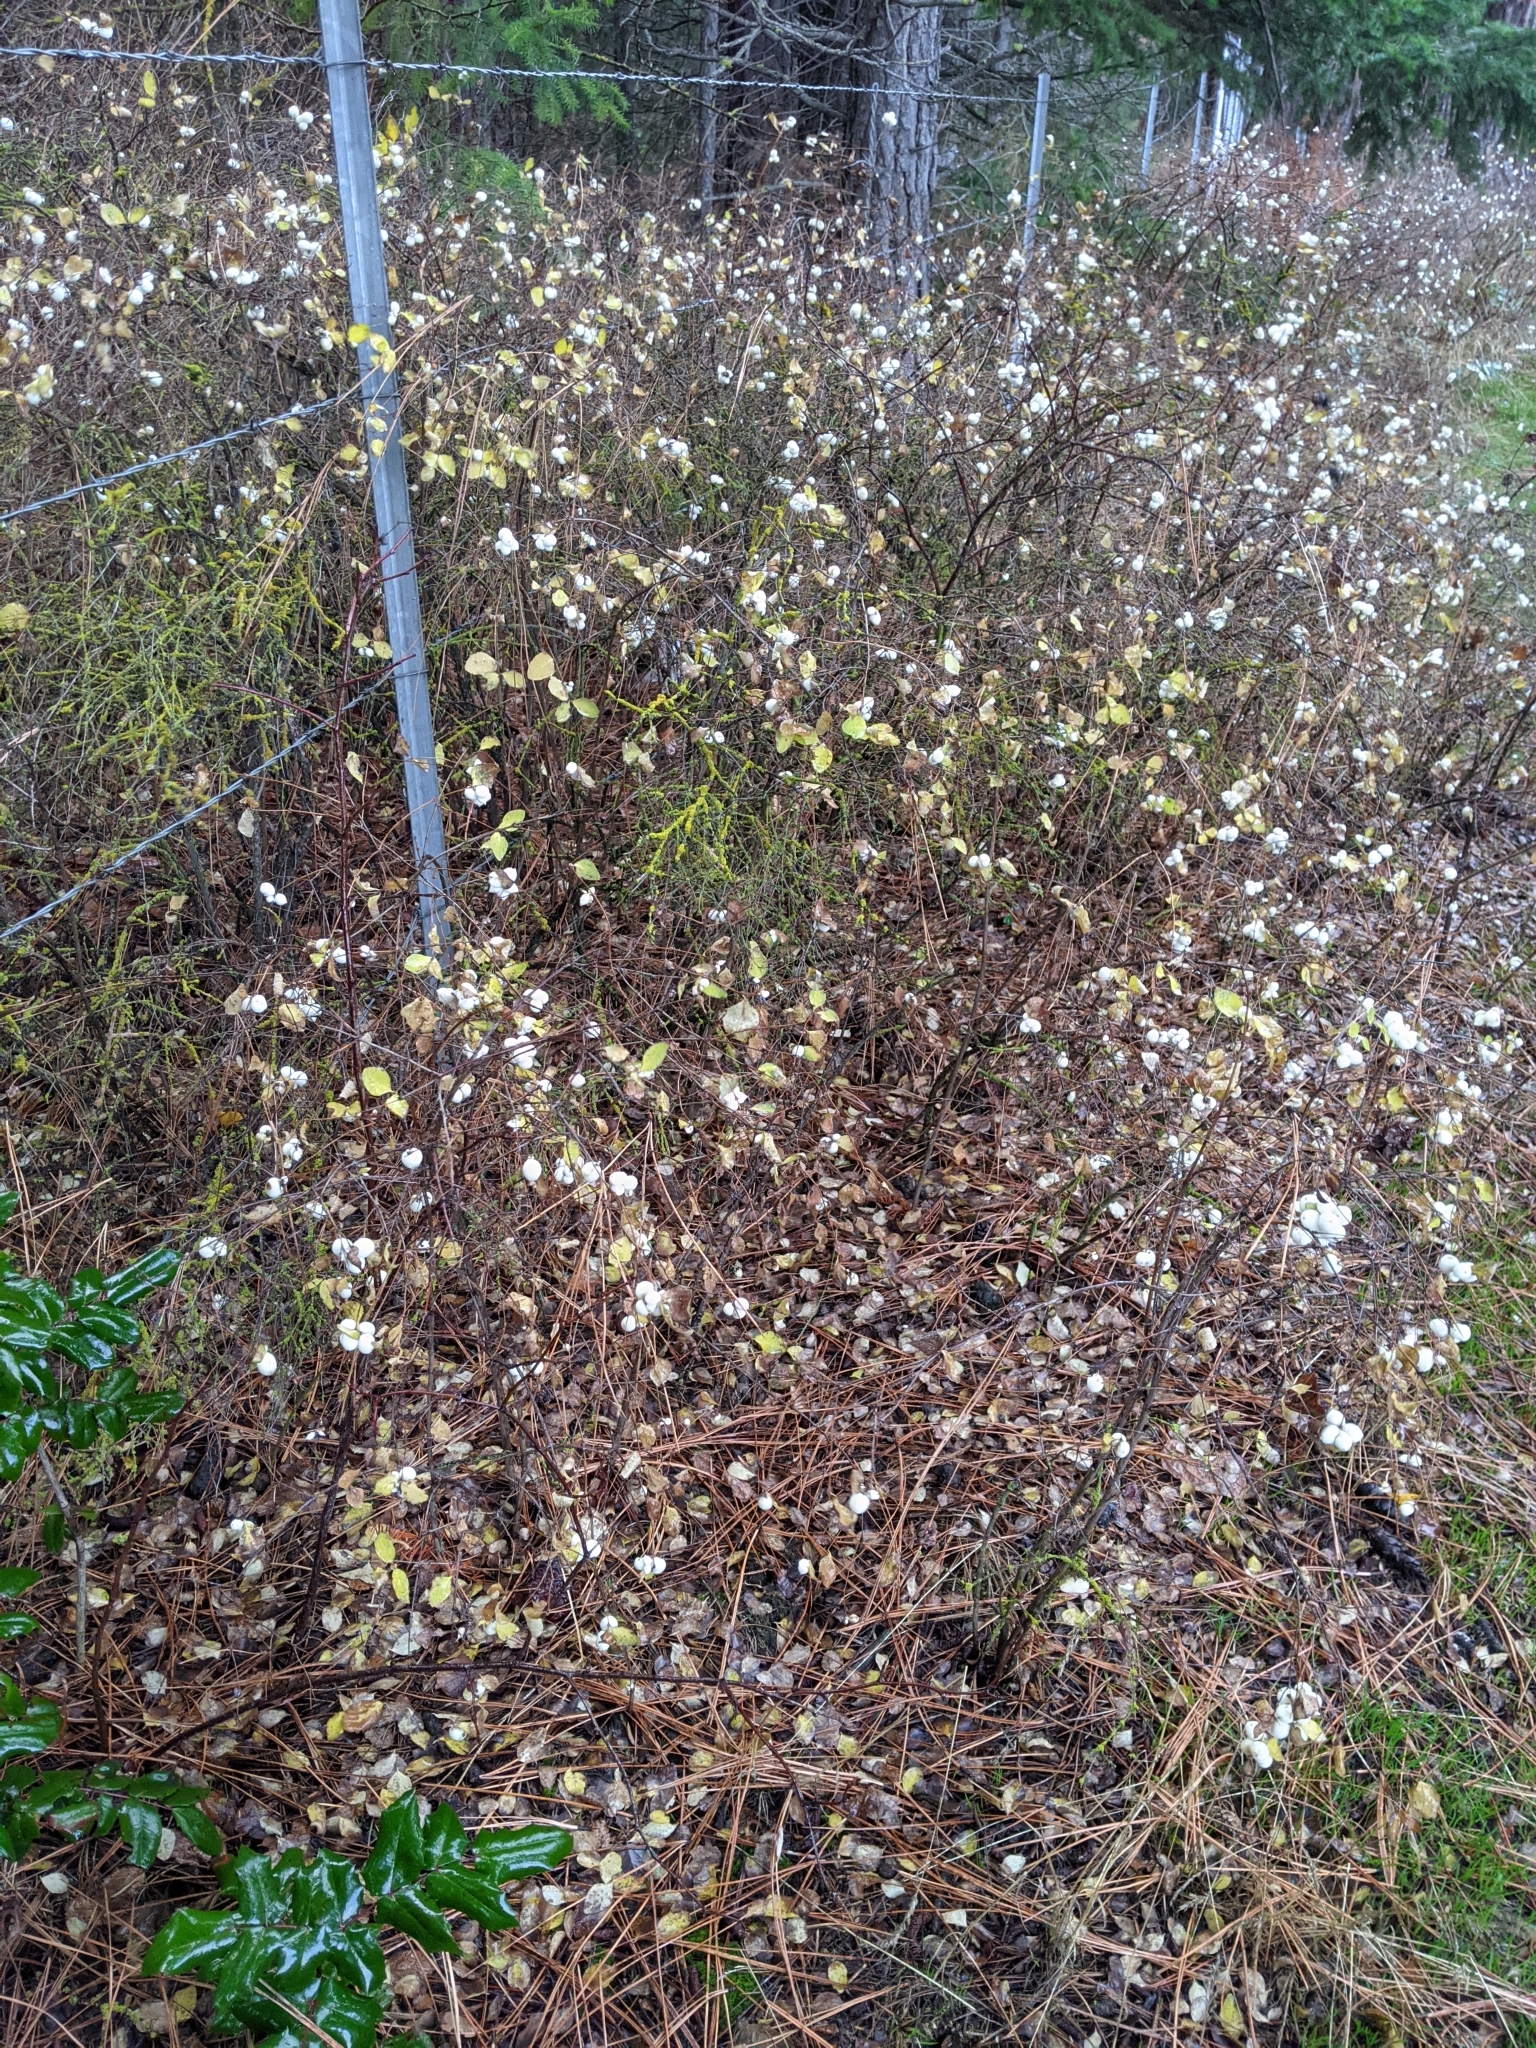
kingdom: Plantae
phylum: Tracheophyta
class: Magnoliopsida
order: Dipsacales
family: Caprifoliaceae
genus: Symphoricarpos
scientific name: Symphoricarpos albus
